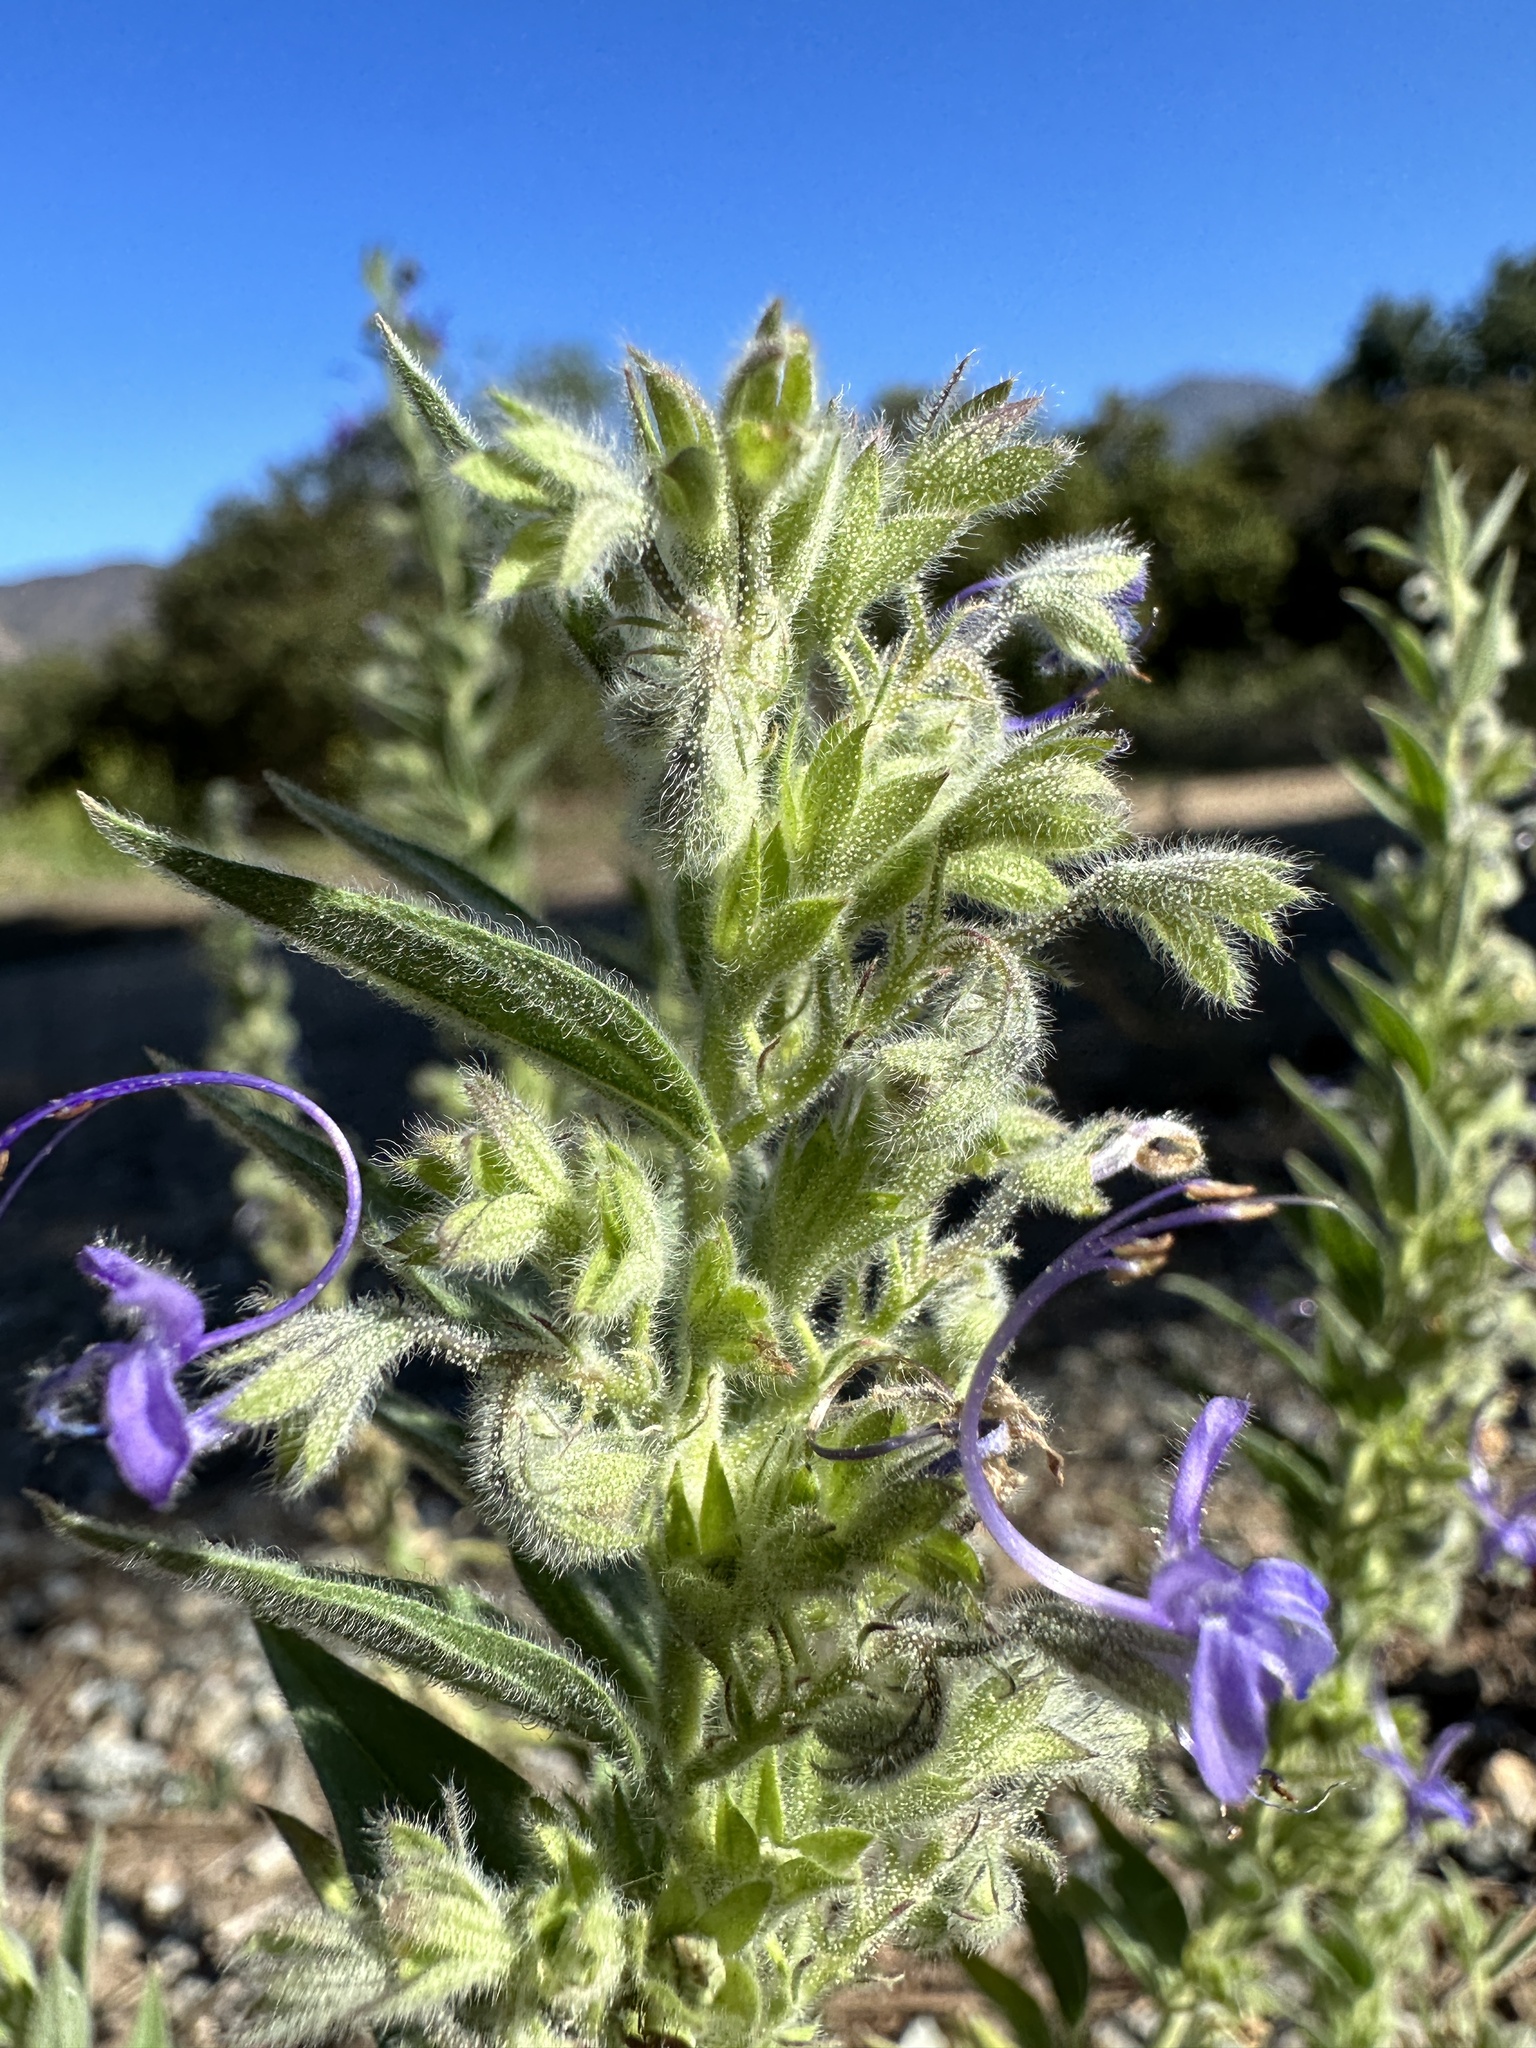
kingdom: Plantae
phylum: Tracheophyta
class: Magnoliopsida
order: Lamiales
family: Lamiaceae
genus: Trichostema
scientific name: Trichostema lanceolatum
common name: Vinegar-weed
